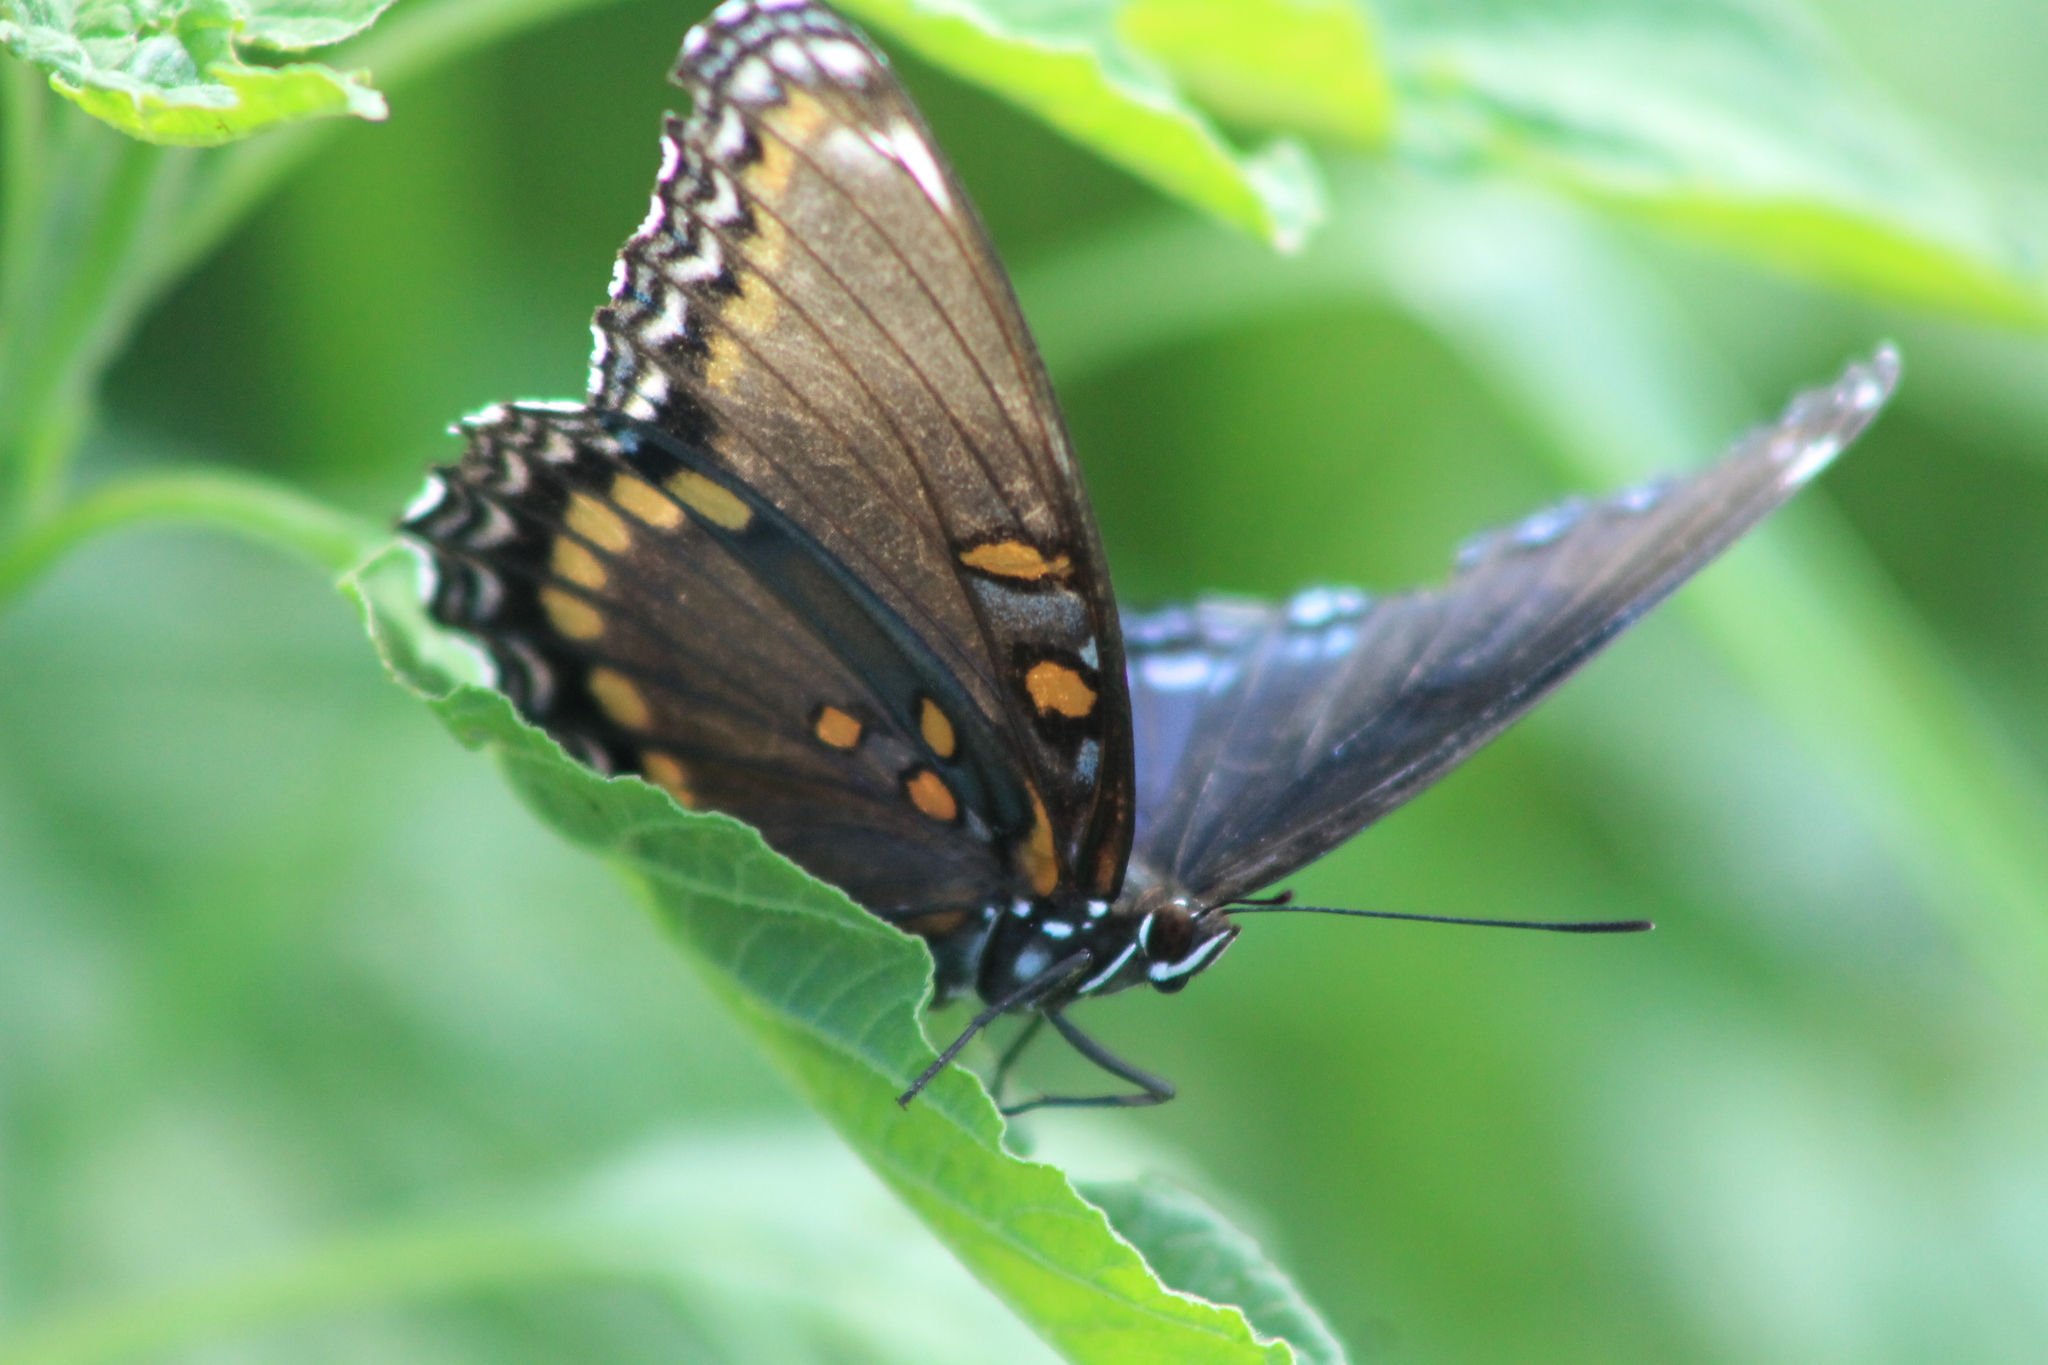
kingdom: Animalia
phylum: Arthropoda
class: Insecta
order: Lepidoptera
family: Nymphalidae
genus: Limenitis
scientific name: Limenitis arthemis
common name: Red-spotted admiral
